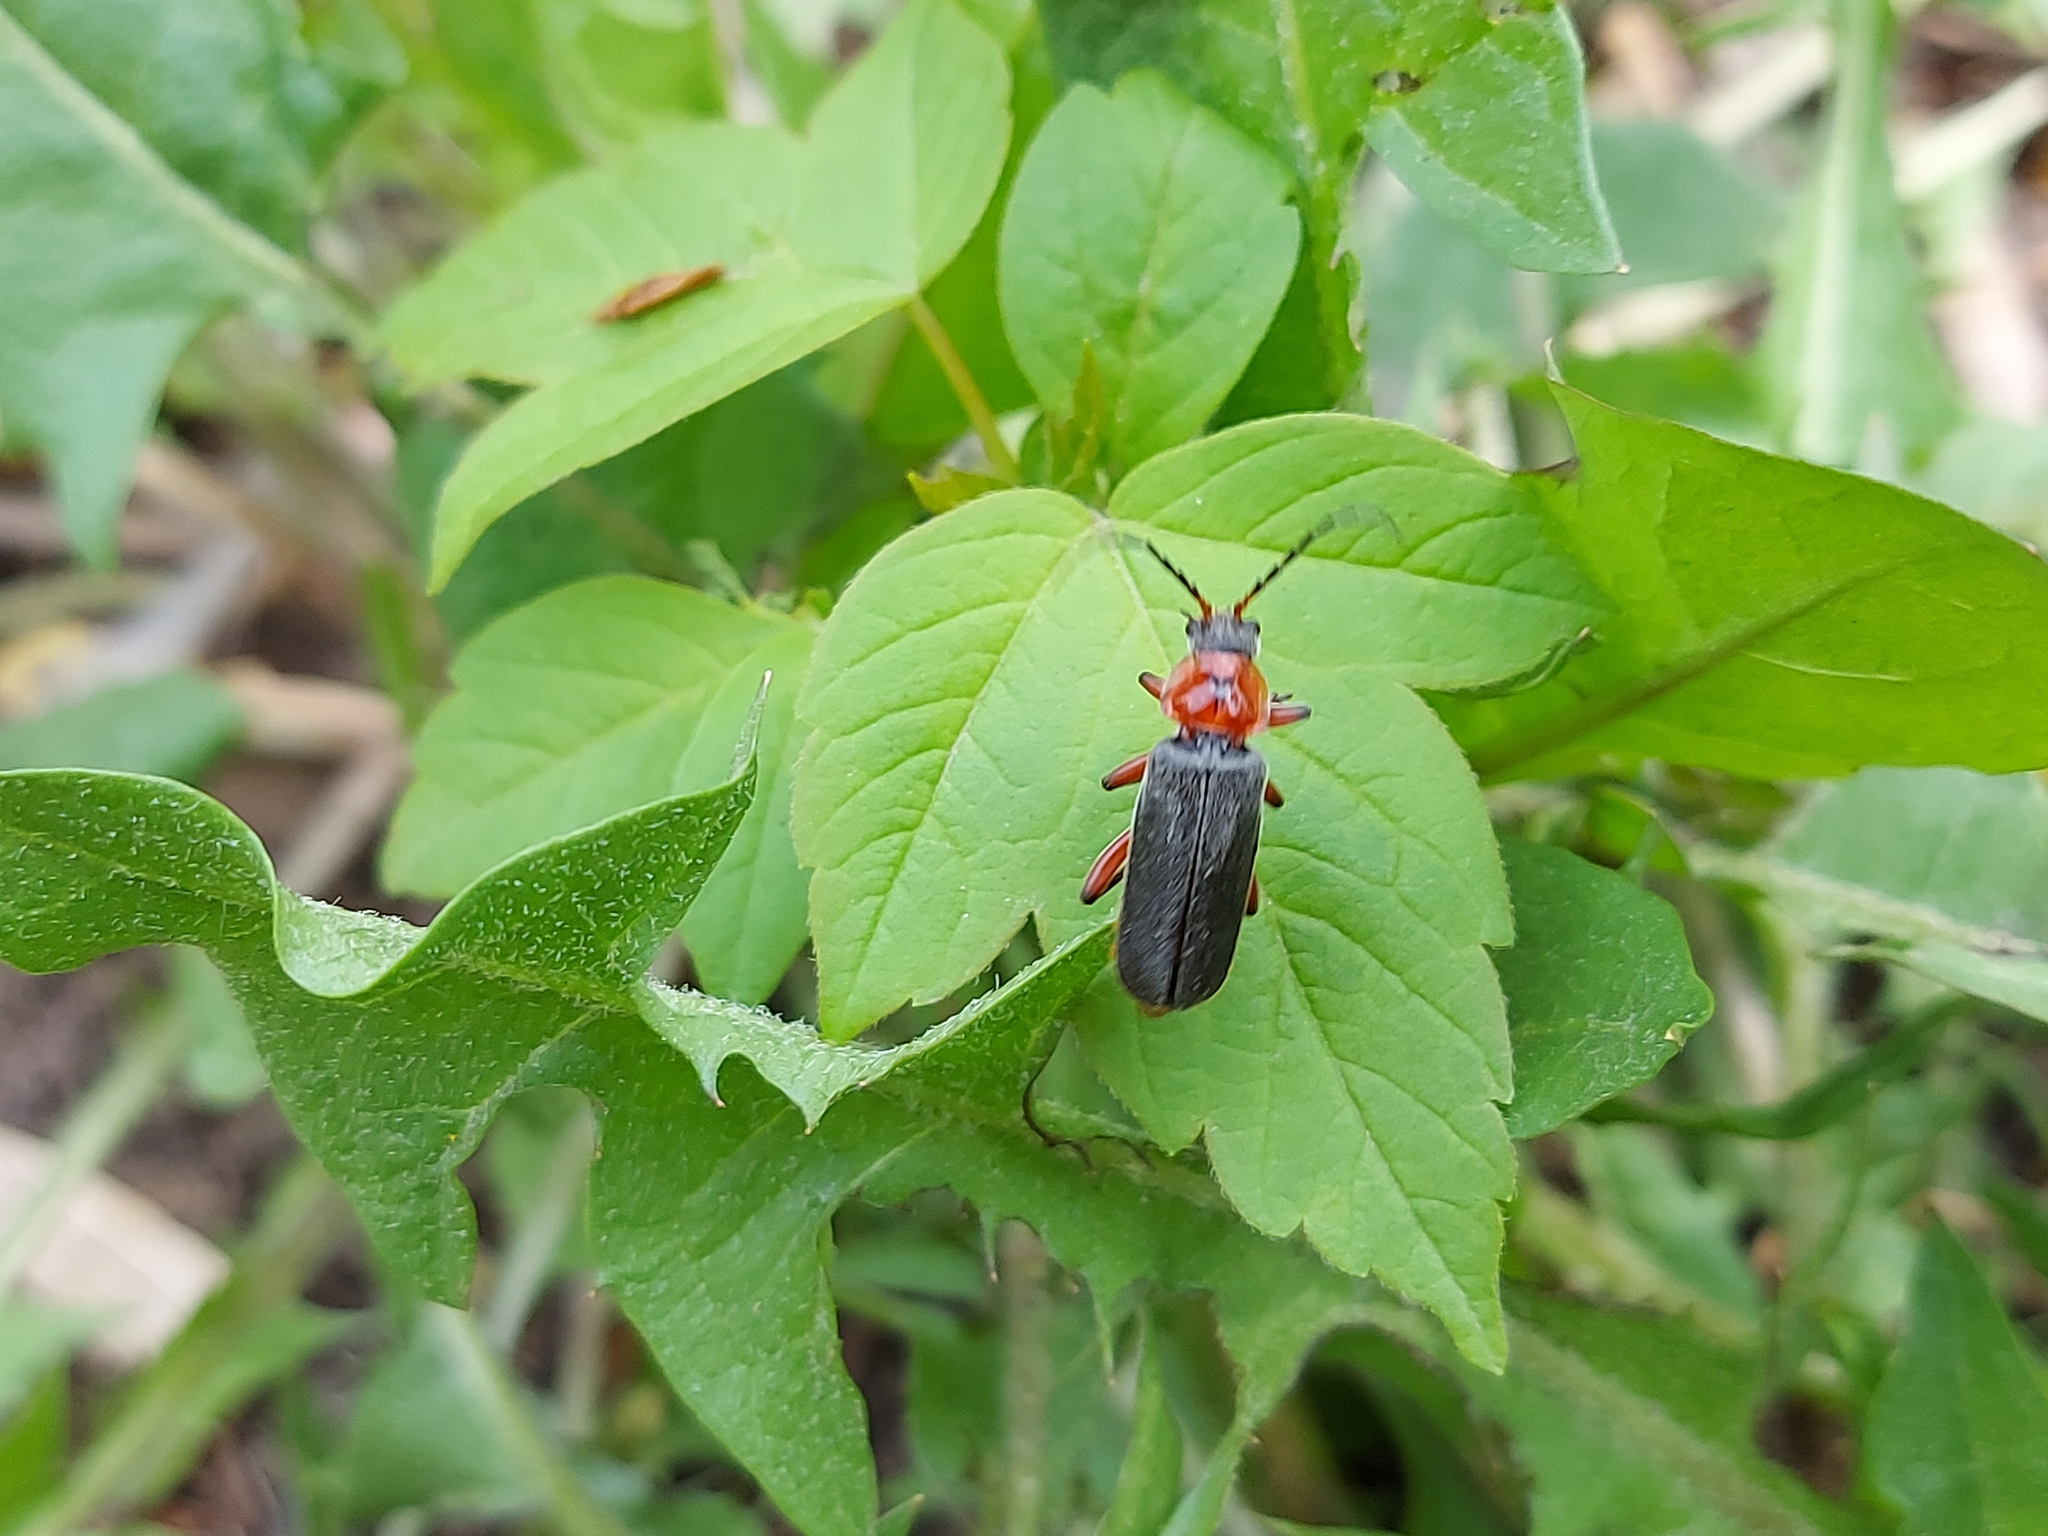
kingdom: Animalia
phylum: Arthropoda
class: Insecta
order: Coleoptera
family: Cantharidae
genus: Cantharis
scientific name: Cantharis rustica
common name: Soldier beetle
